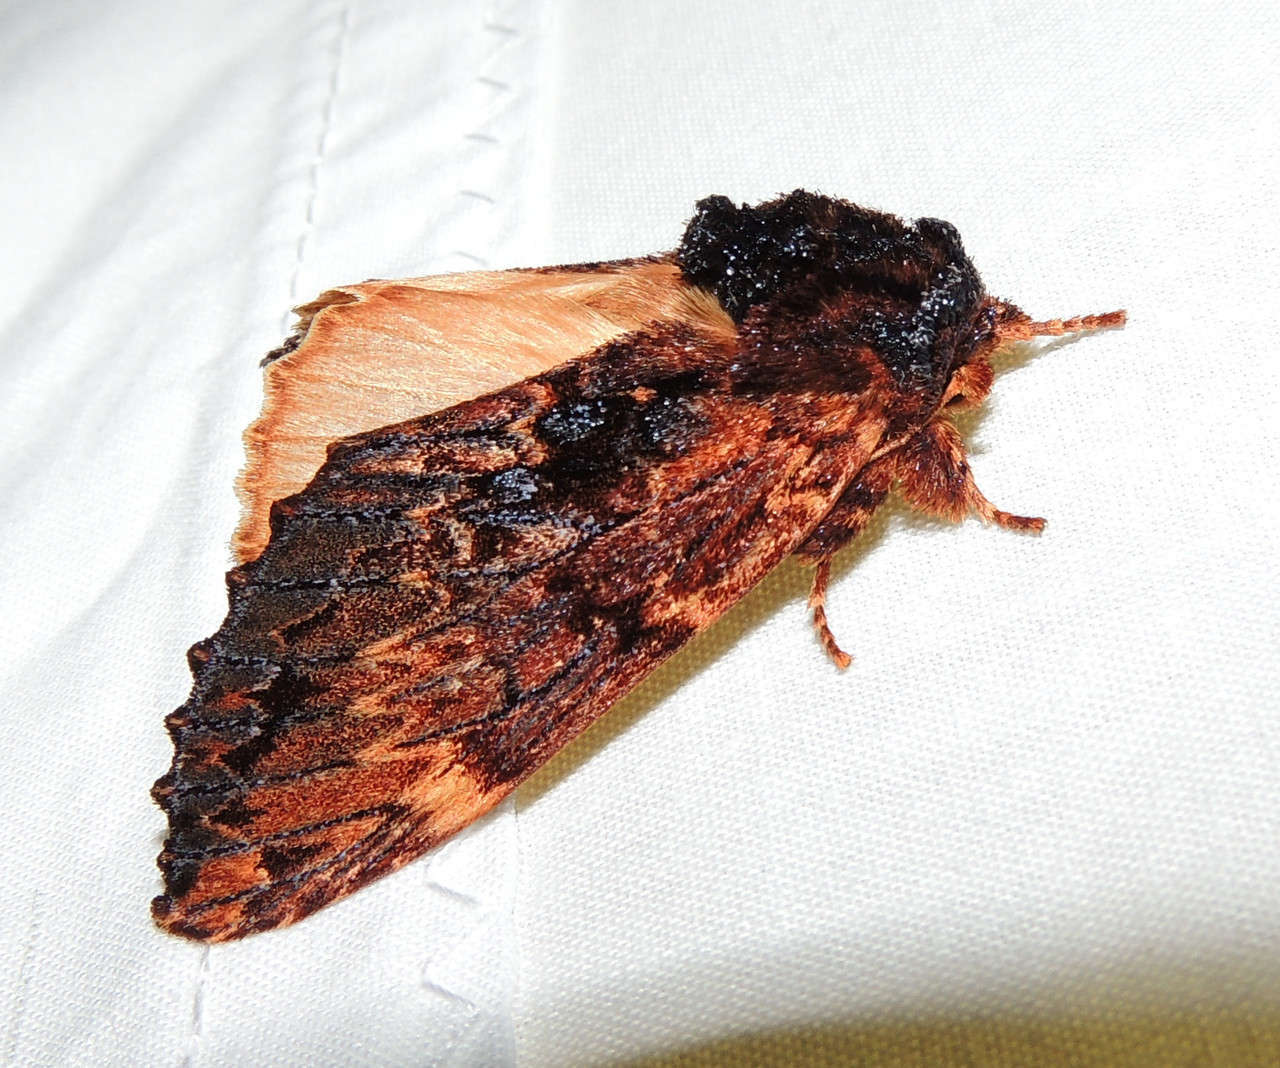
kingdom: Animalia
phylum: Arthropoda
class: Insecta
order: Lepidoptera
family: Notodontidae
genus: Sorama
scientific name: Sorama bicolor
